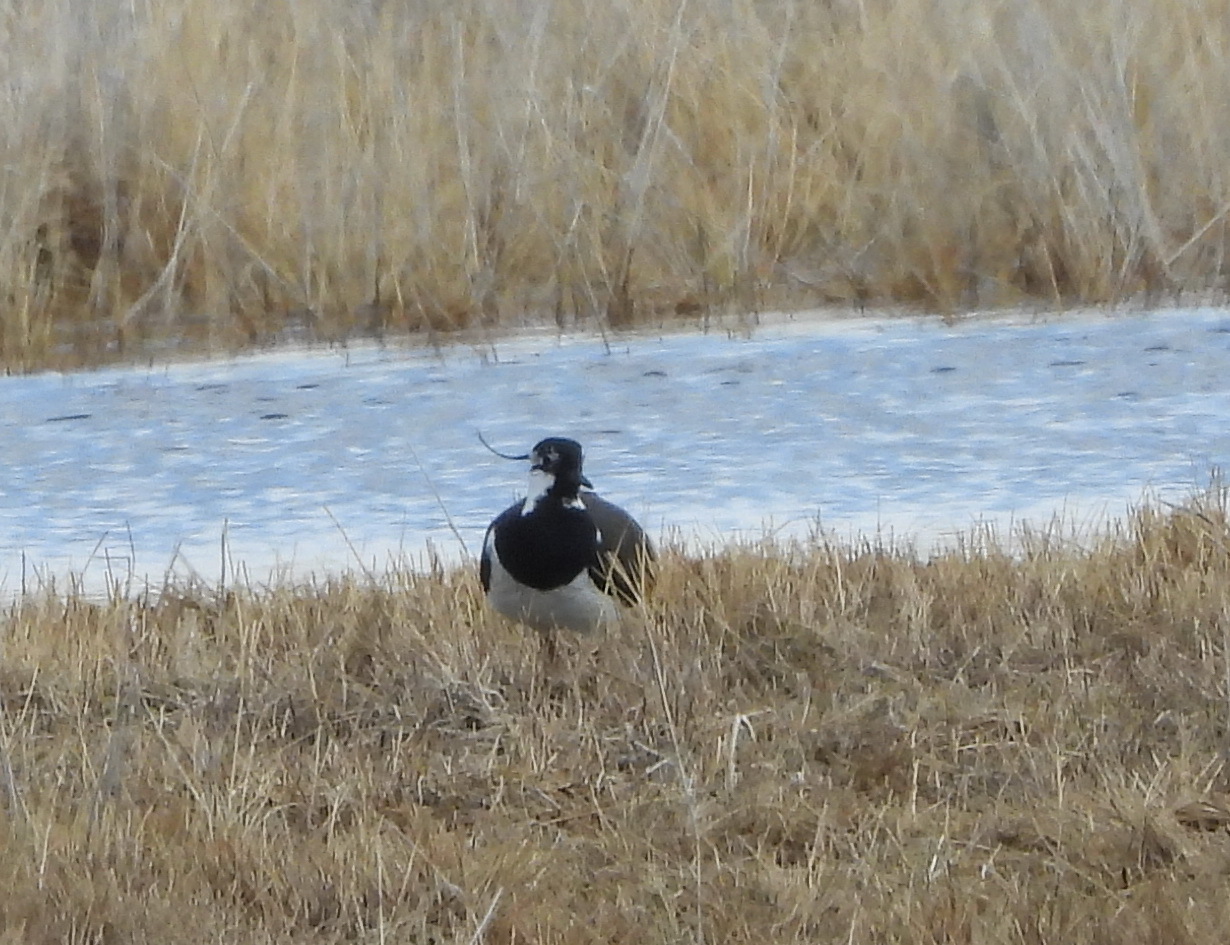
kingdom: Animalia
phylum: Chordata
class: Aves
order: Charadriiformes
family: Charadriidae
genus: Vanellus
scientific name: Vanellus vanellus
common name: Northern lapwing
